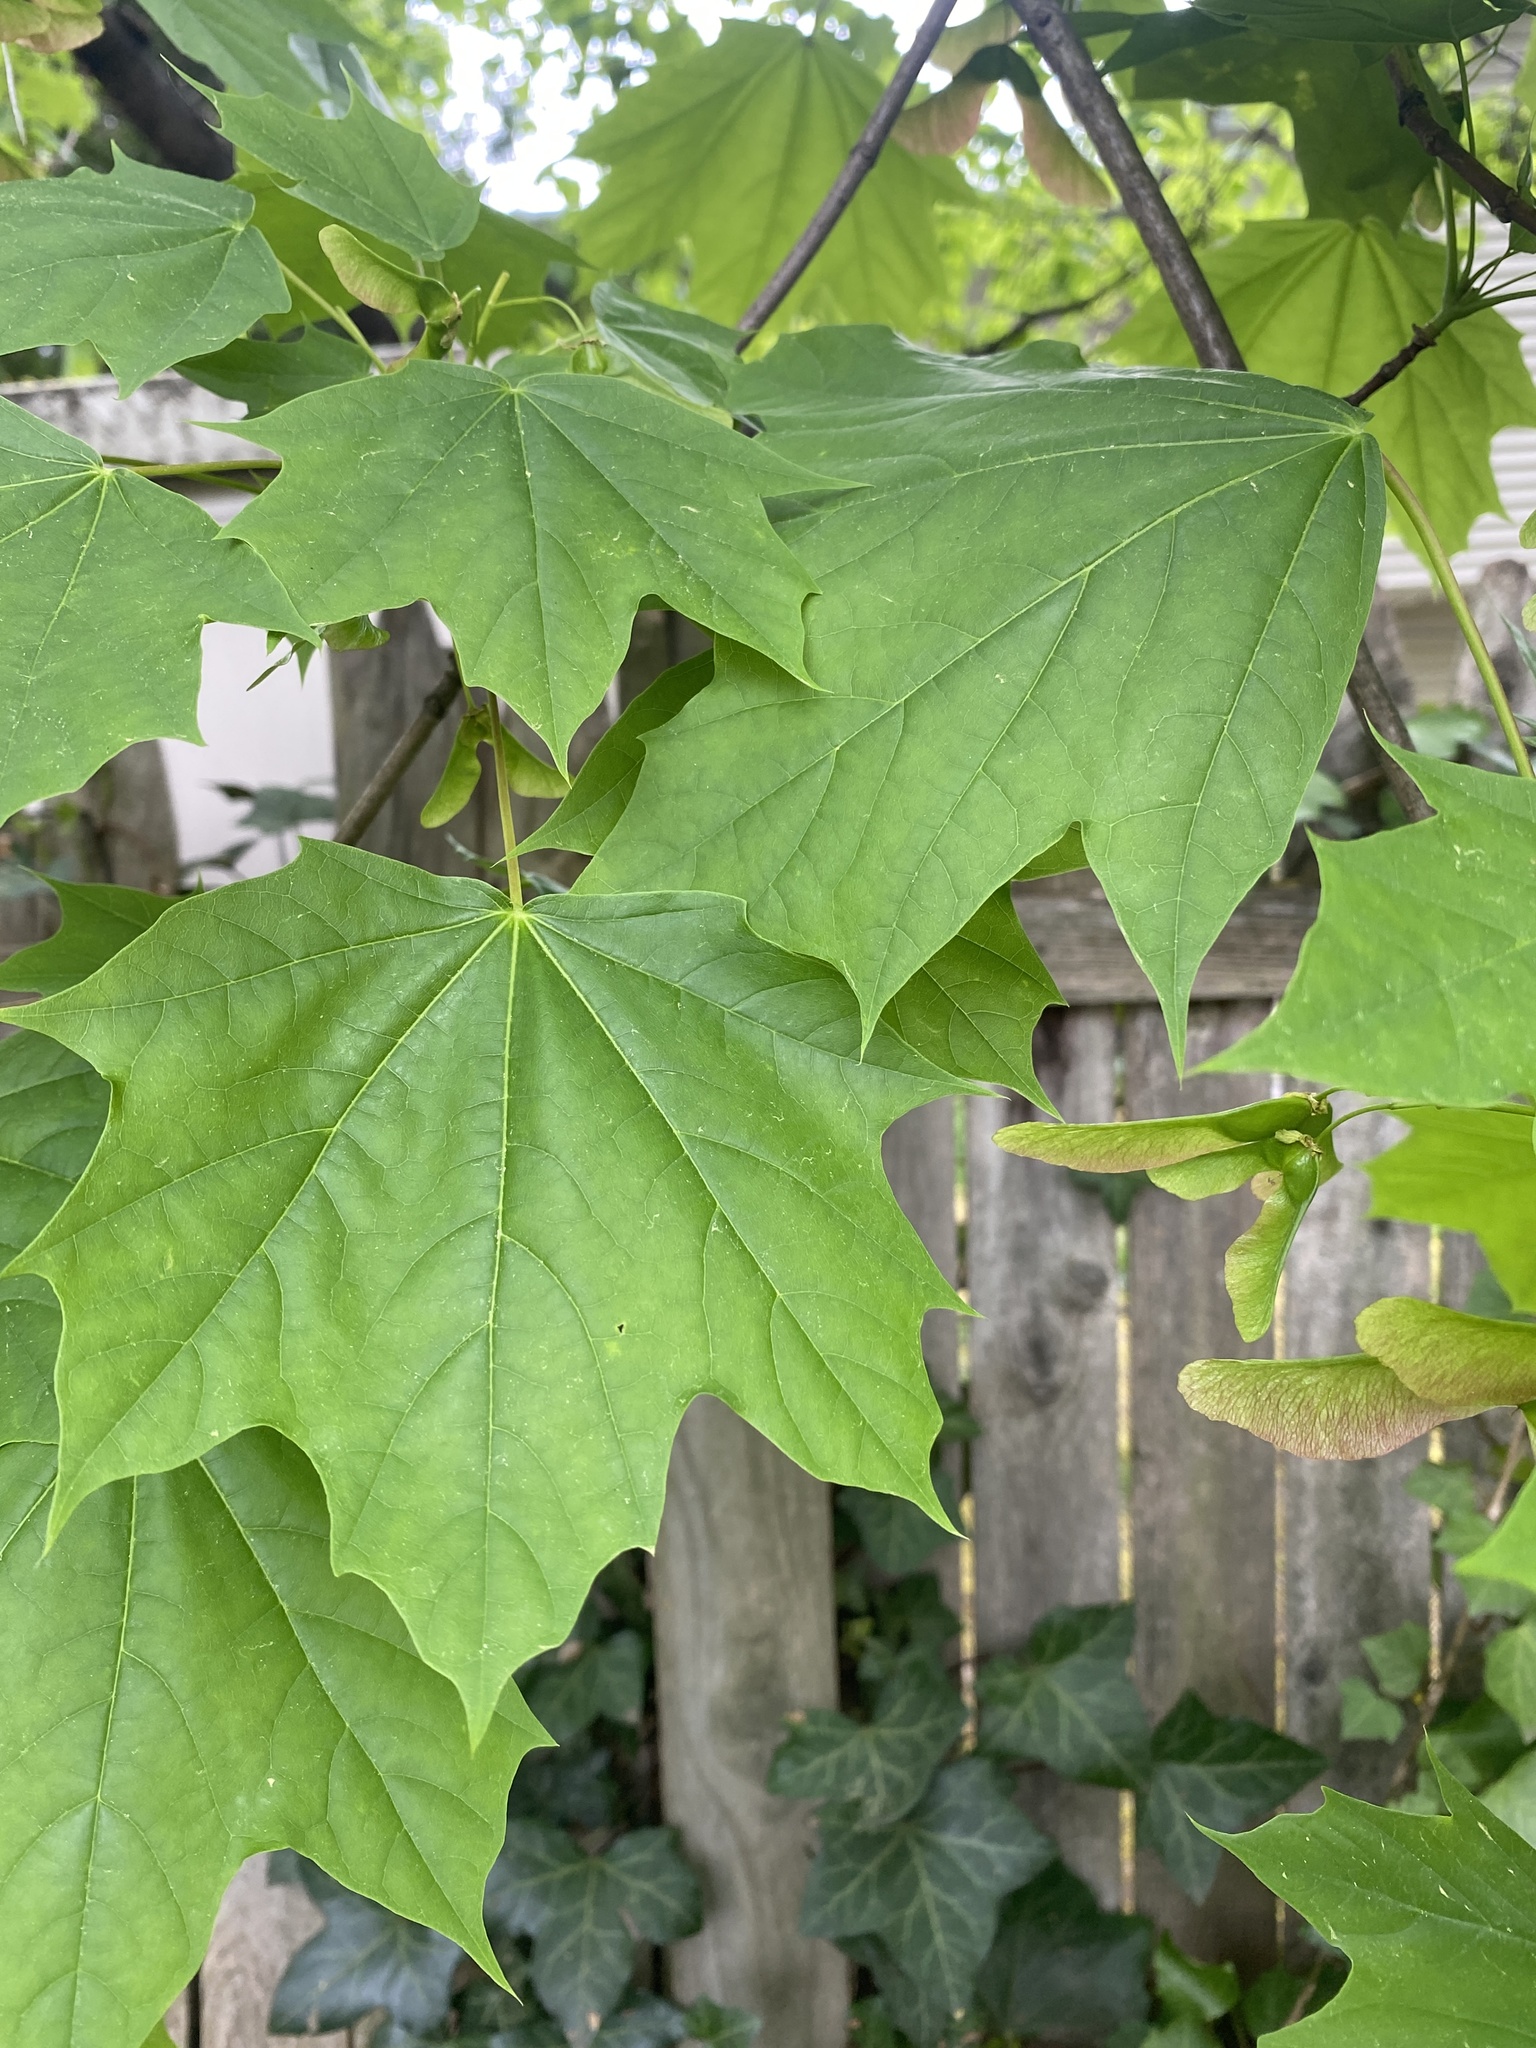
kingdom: Plantae
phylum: Tracheophyta
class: Magnoliopsida
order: Sapindales
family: Sapindaceae
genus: Acer
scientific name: Acer platanoides
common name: Norway maple
